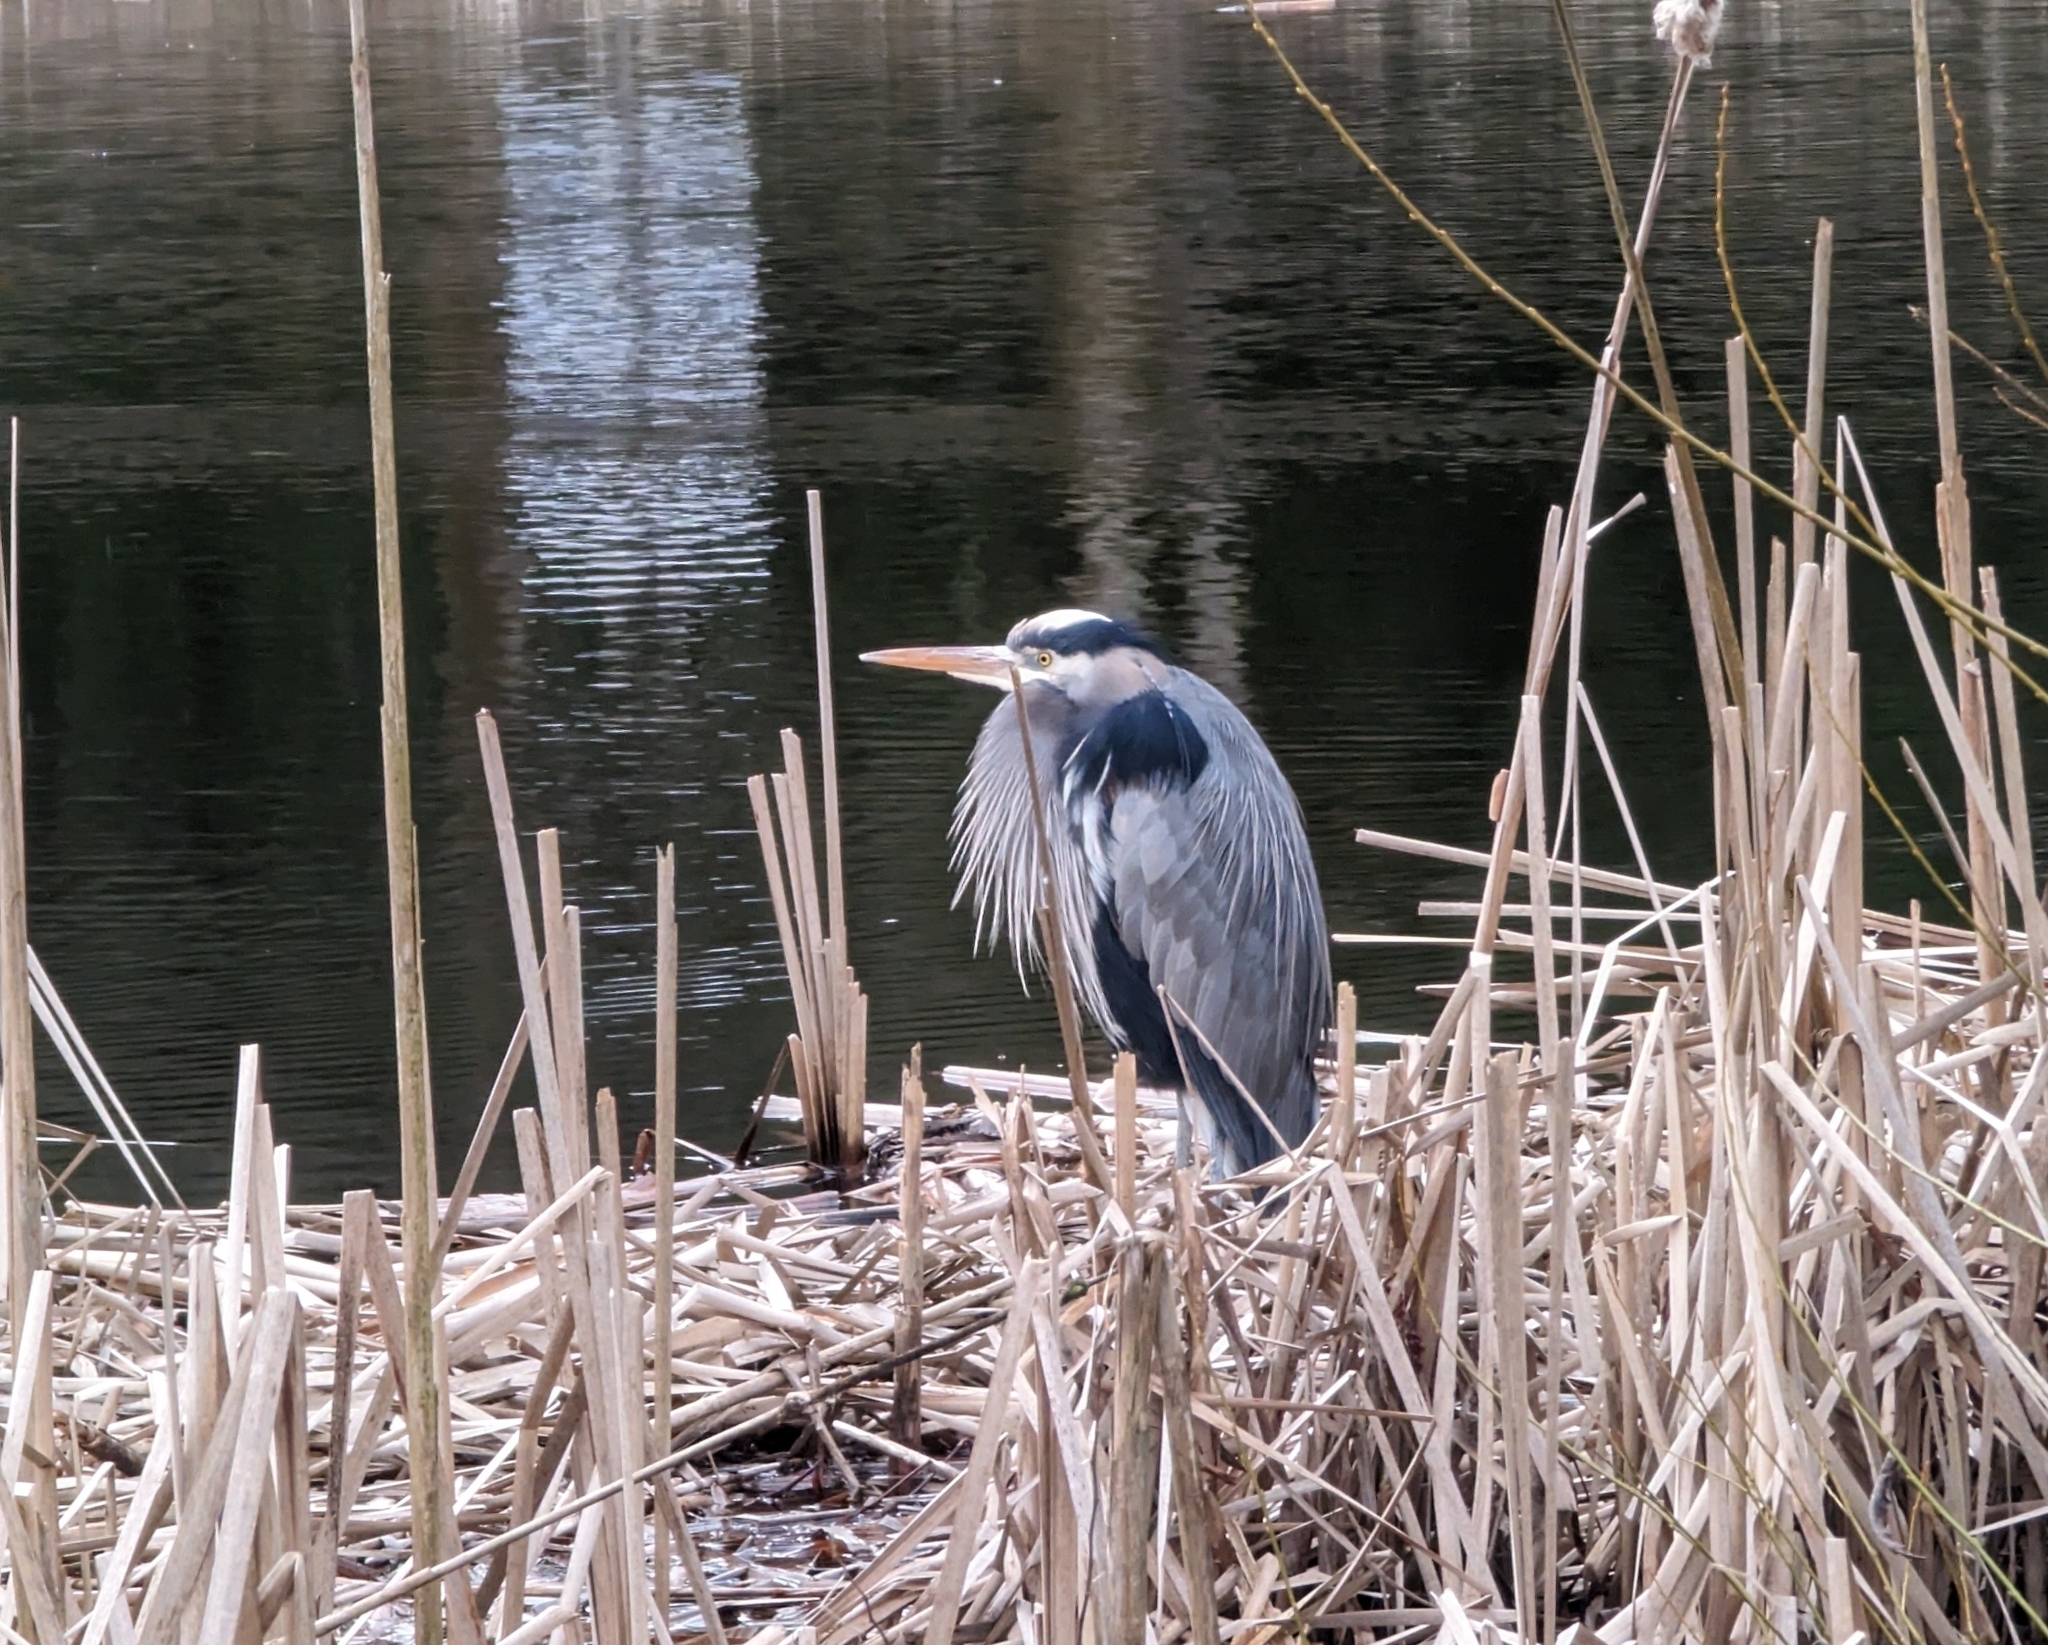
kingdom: Animalia
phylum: Chordata
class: Aves
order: Pelecaniformes
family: Ardeidae
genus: Ardea
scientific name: Ardea herodias
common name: Great blue heron
